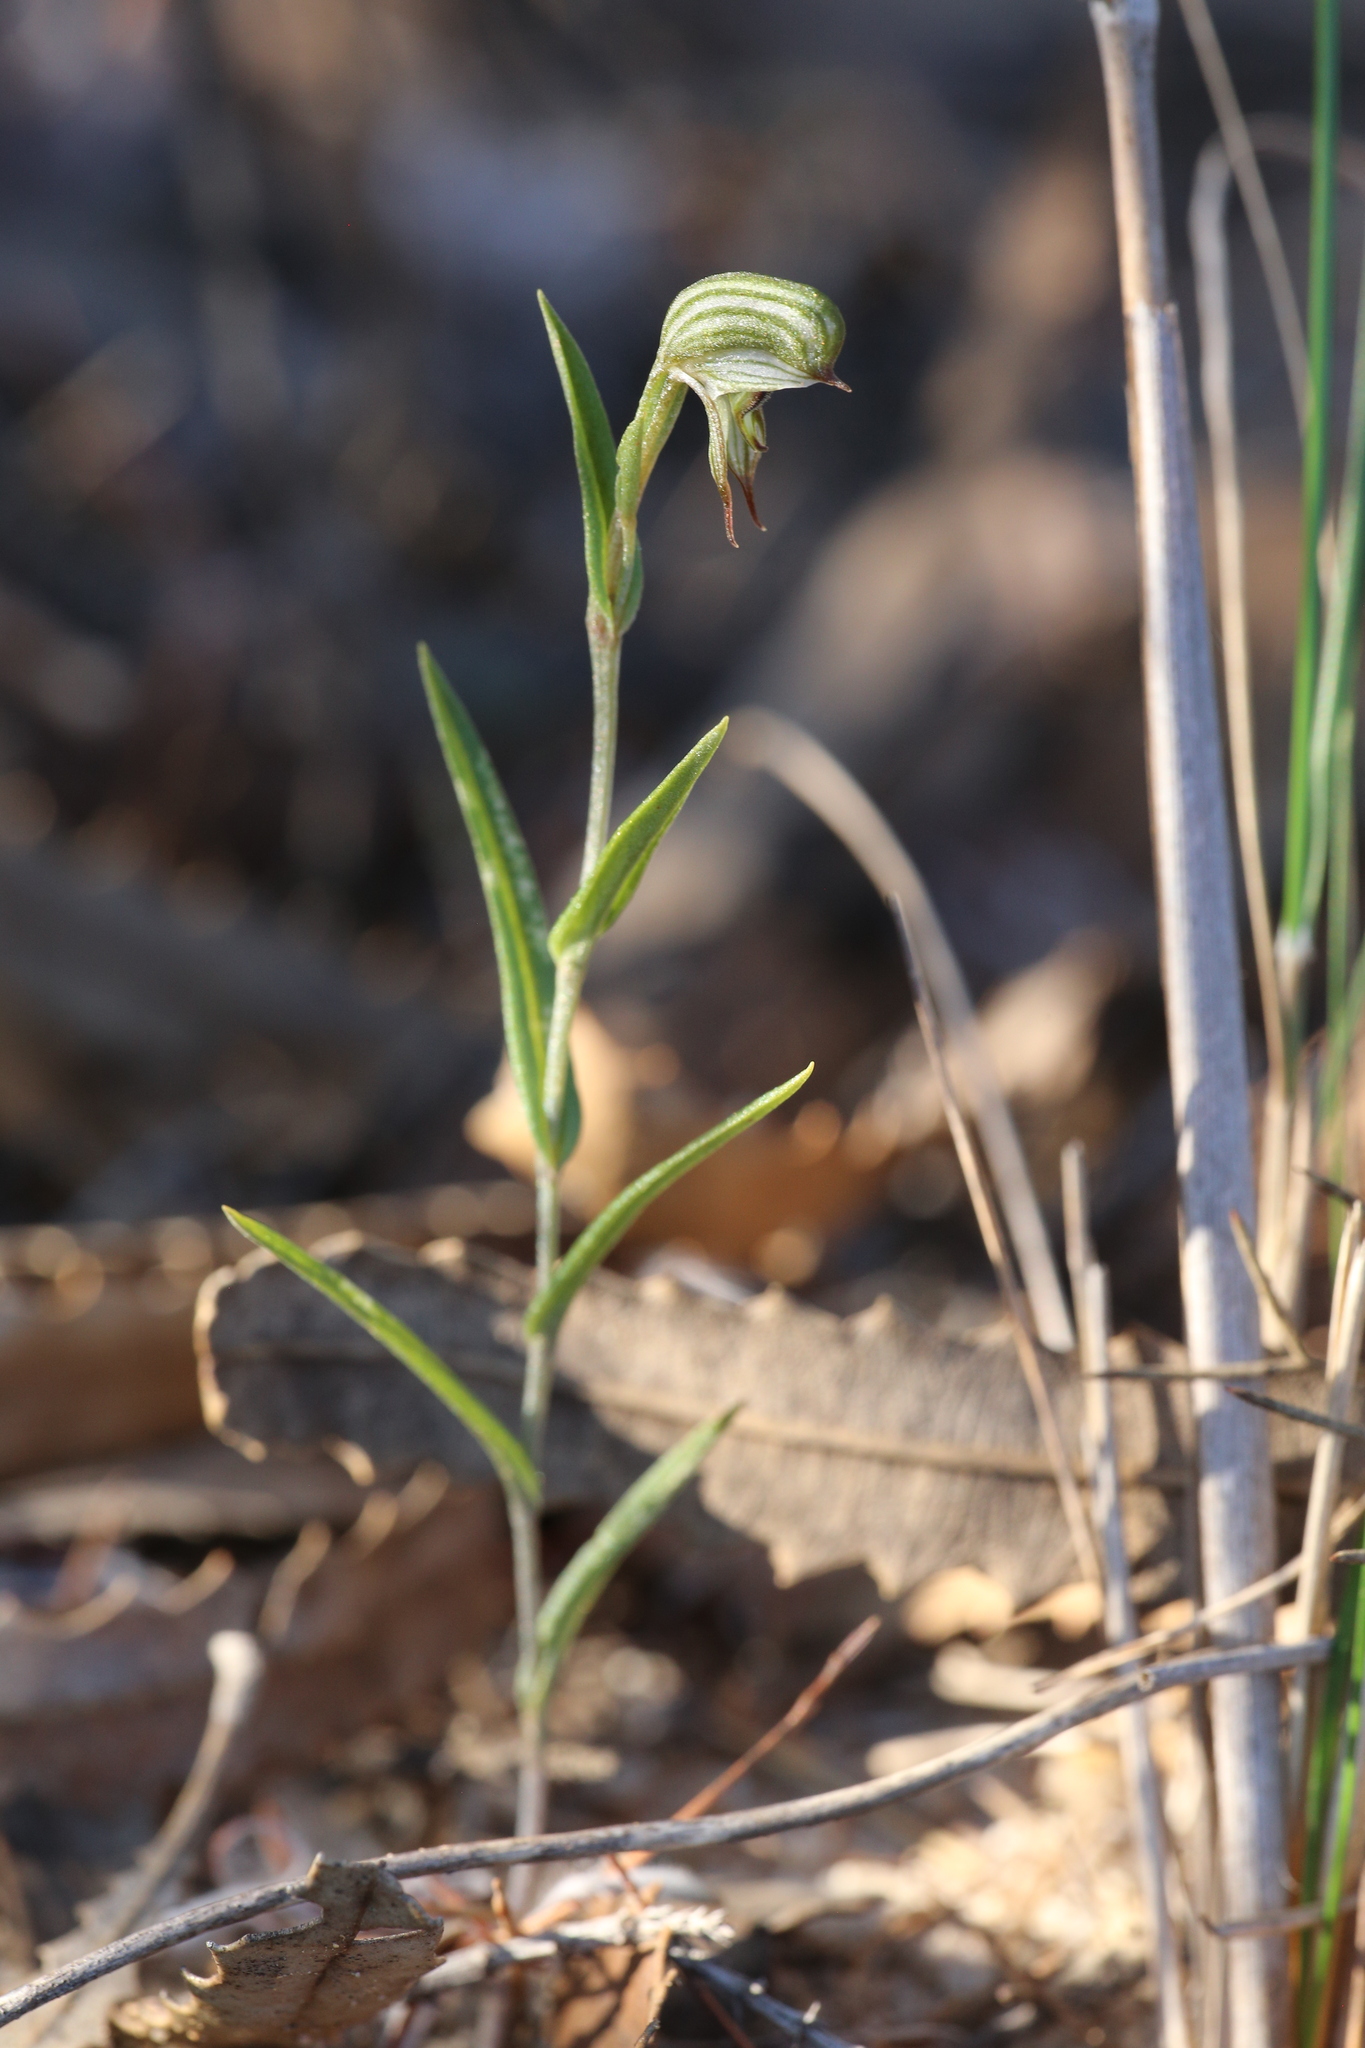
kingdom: Plantae
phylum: Tracheophyta
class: Liliopsida
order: Asparagales
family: Orchidaceae
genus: Pterostylis
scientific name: Pterostylis
